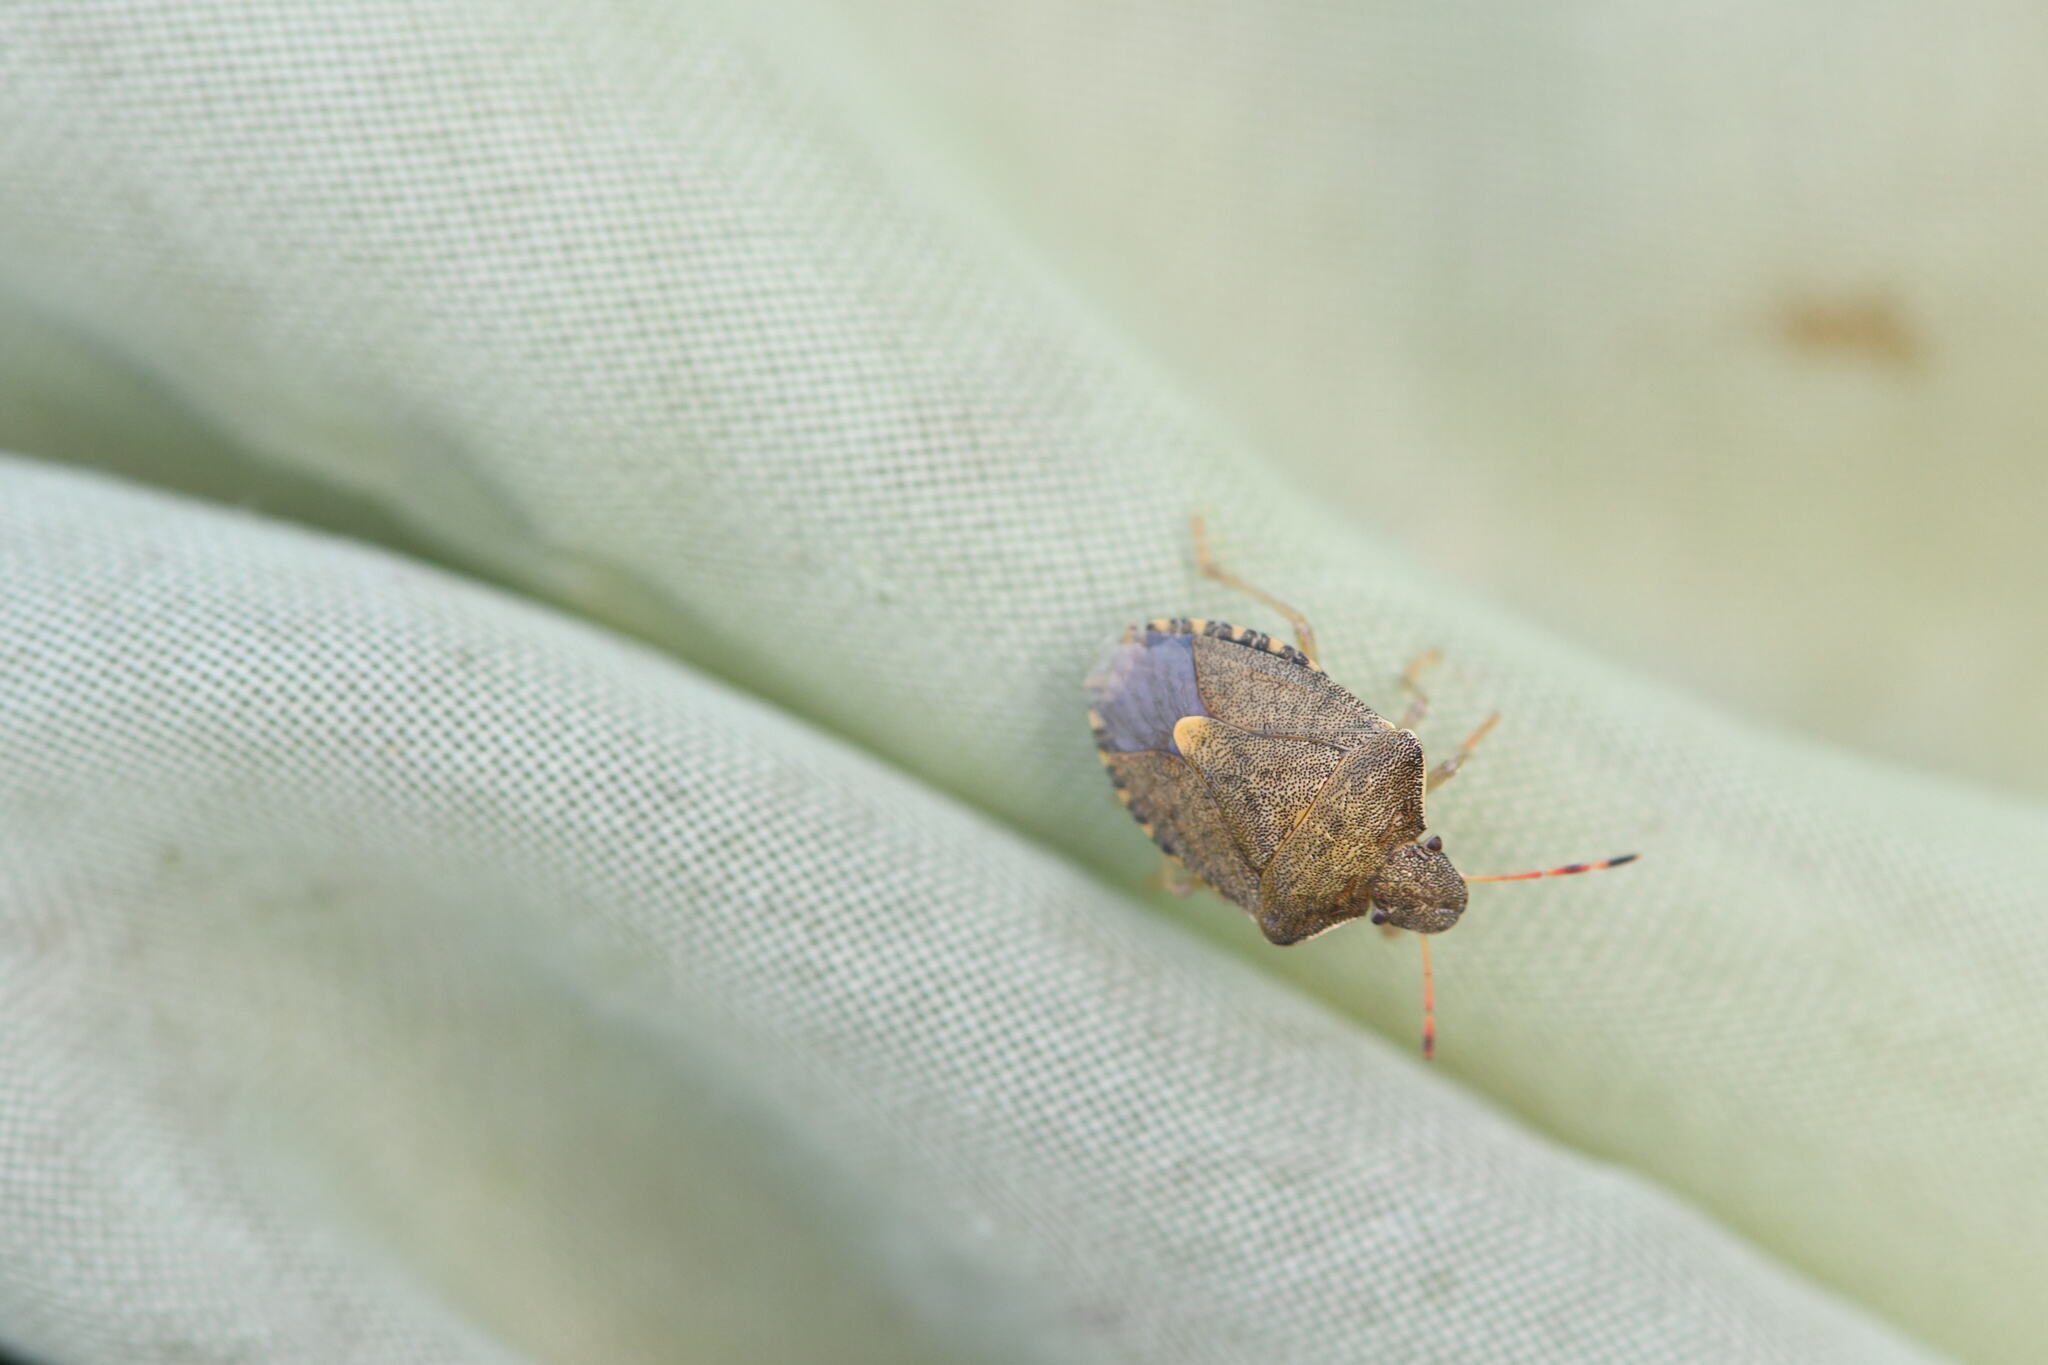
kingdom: Animalia
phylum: Arthropoda
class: Insecta
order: Hemiptera
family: Pentatomidae
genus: Holcostethus
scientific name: Holcostethus strictus
